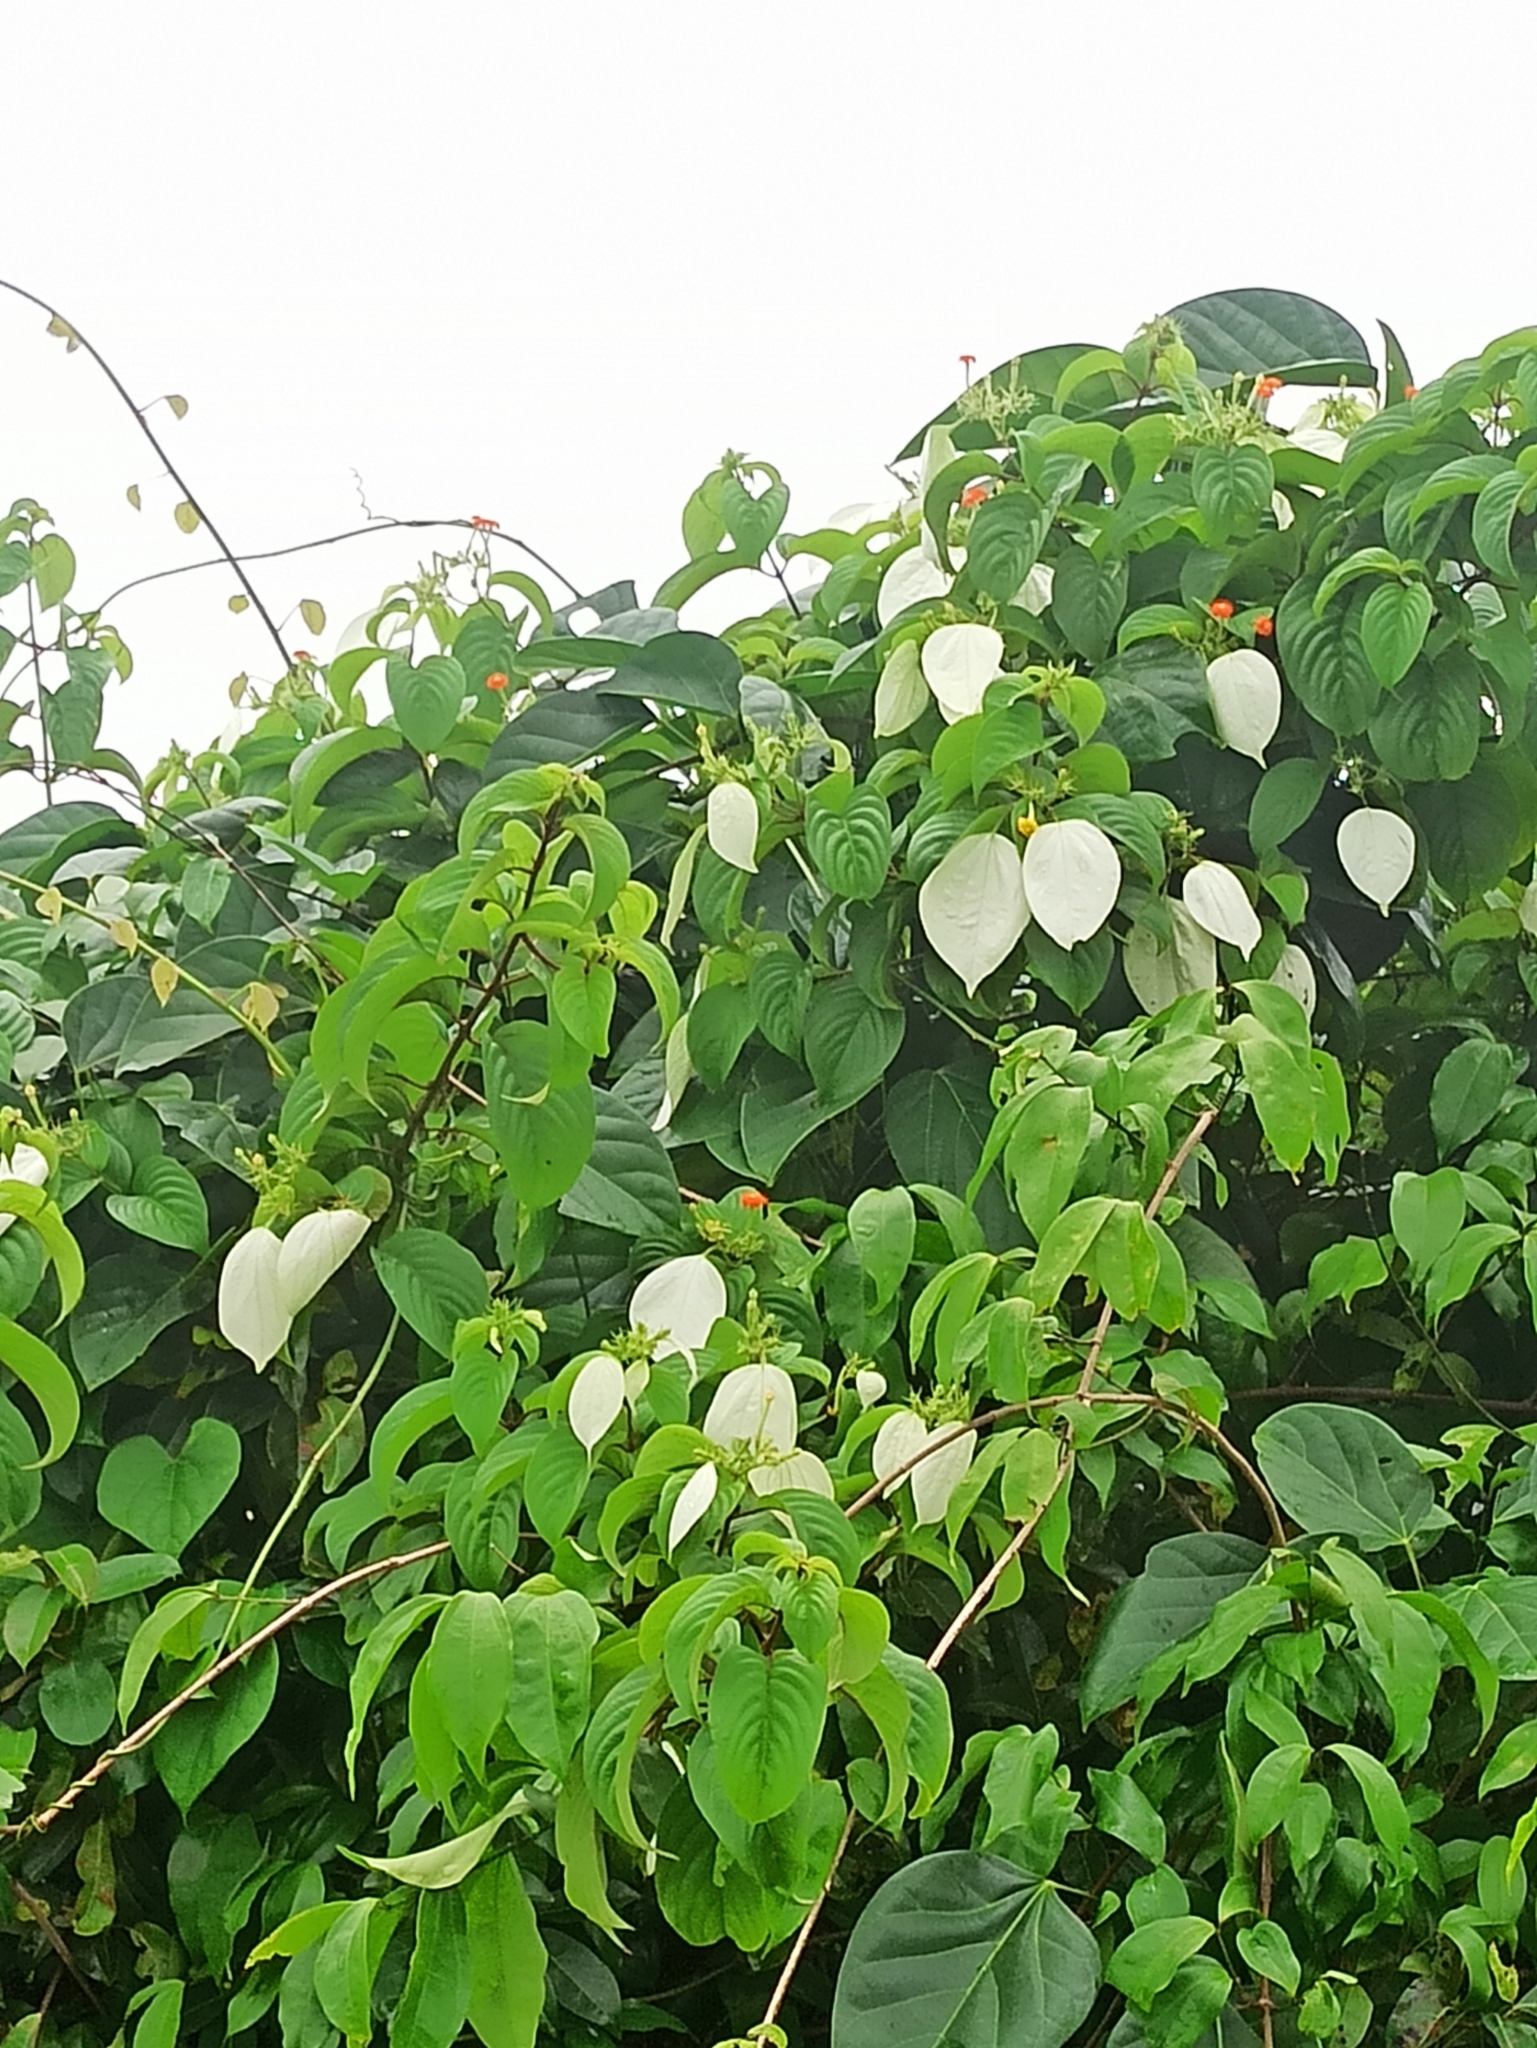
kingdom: Plantae
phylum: Tracheophyta
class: Magnoliopsida
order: Gentianales
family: Rubiaceae
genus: Mussaenda
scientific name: Mussaenda frondosa
